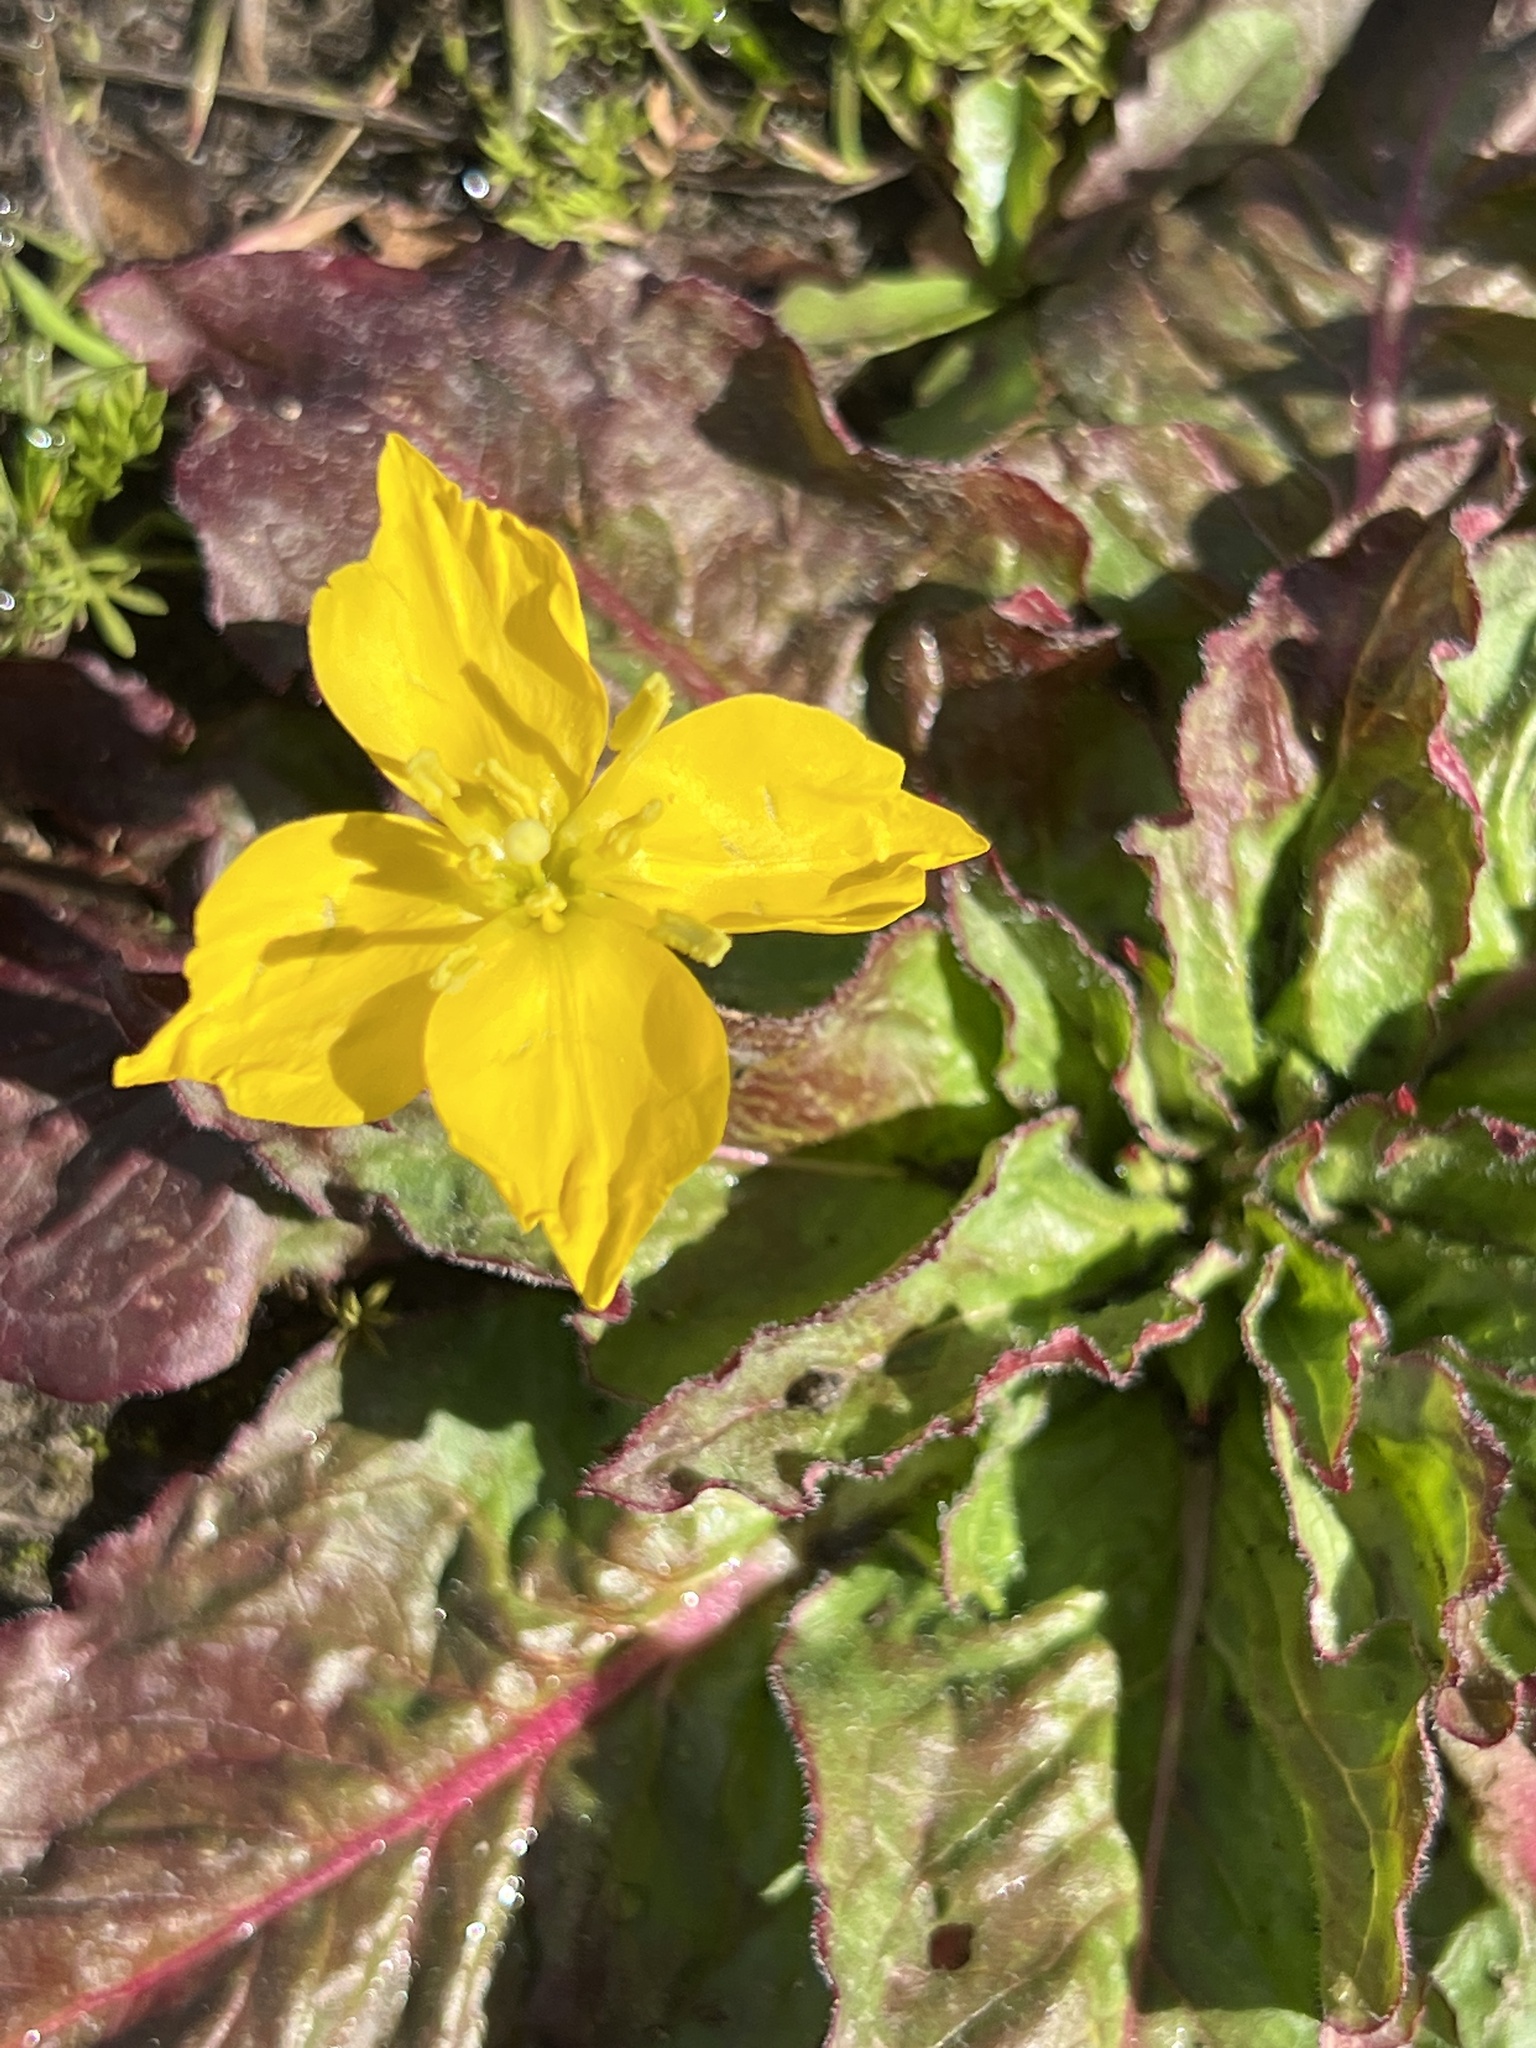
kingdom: Plantae
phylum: Tracheophyta
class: Magnoliopsida
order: Myrtales
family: Onagraceae
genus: Taraxia
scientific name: Taraxia ovata
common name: Goldeneggs
